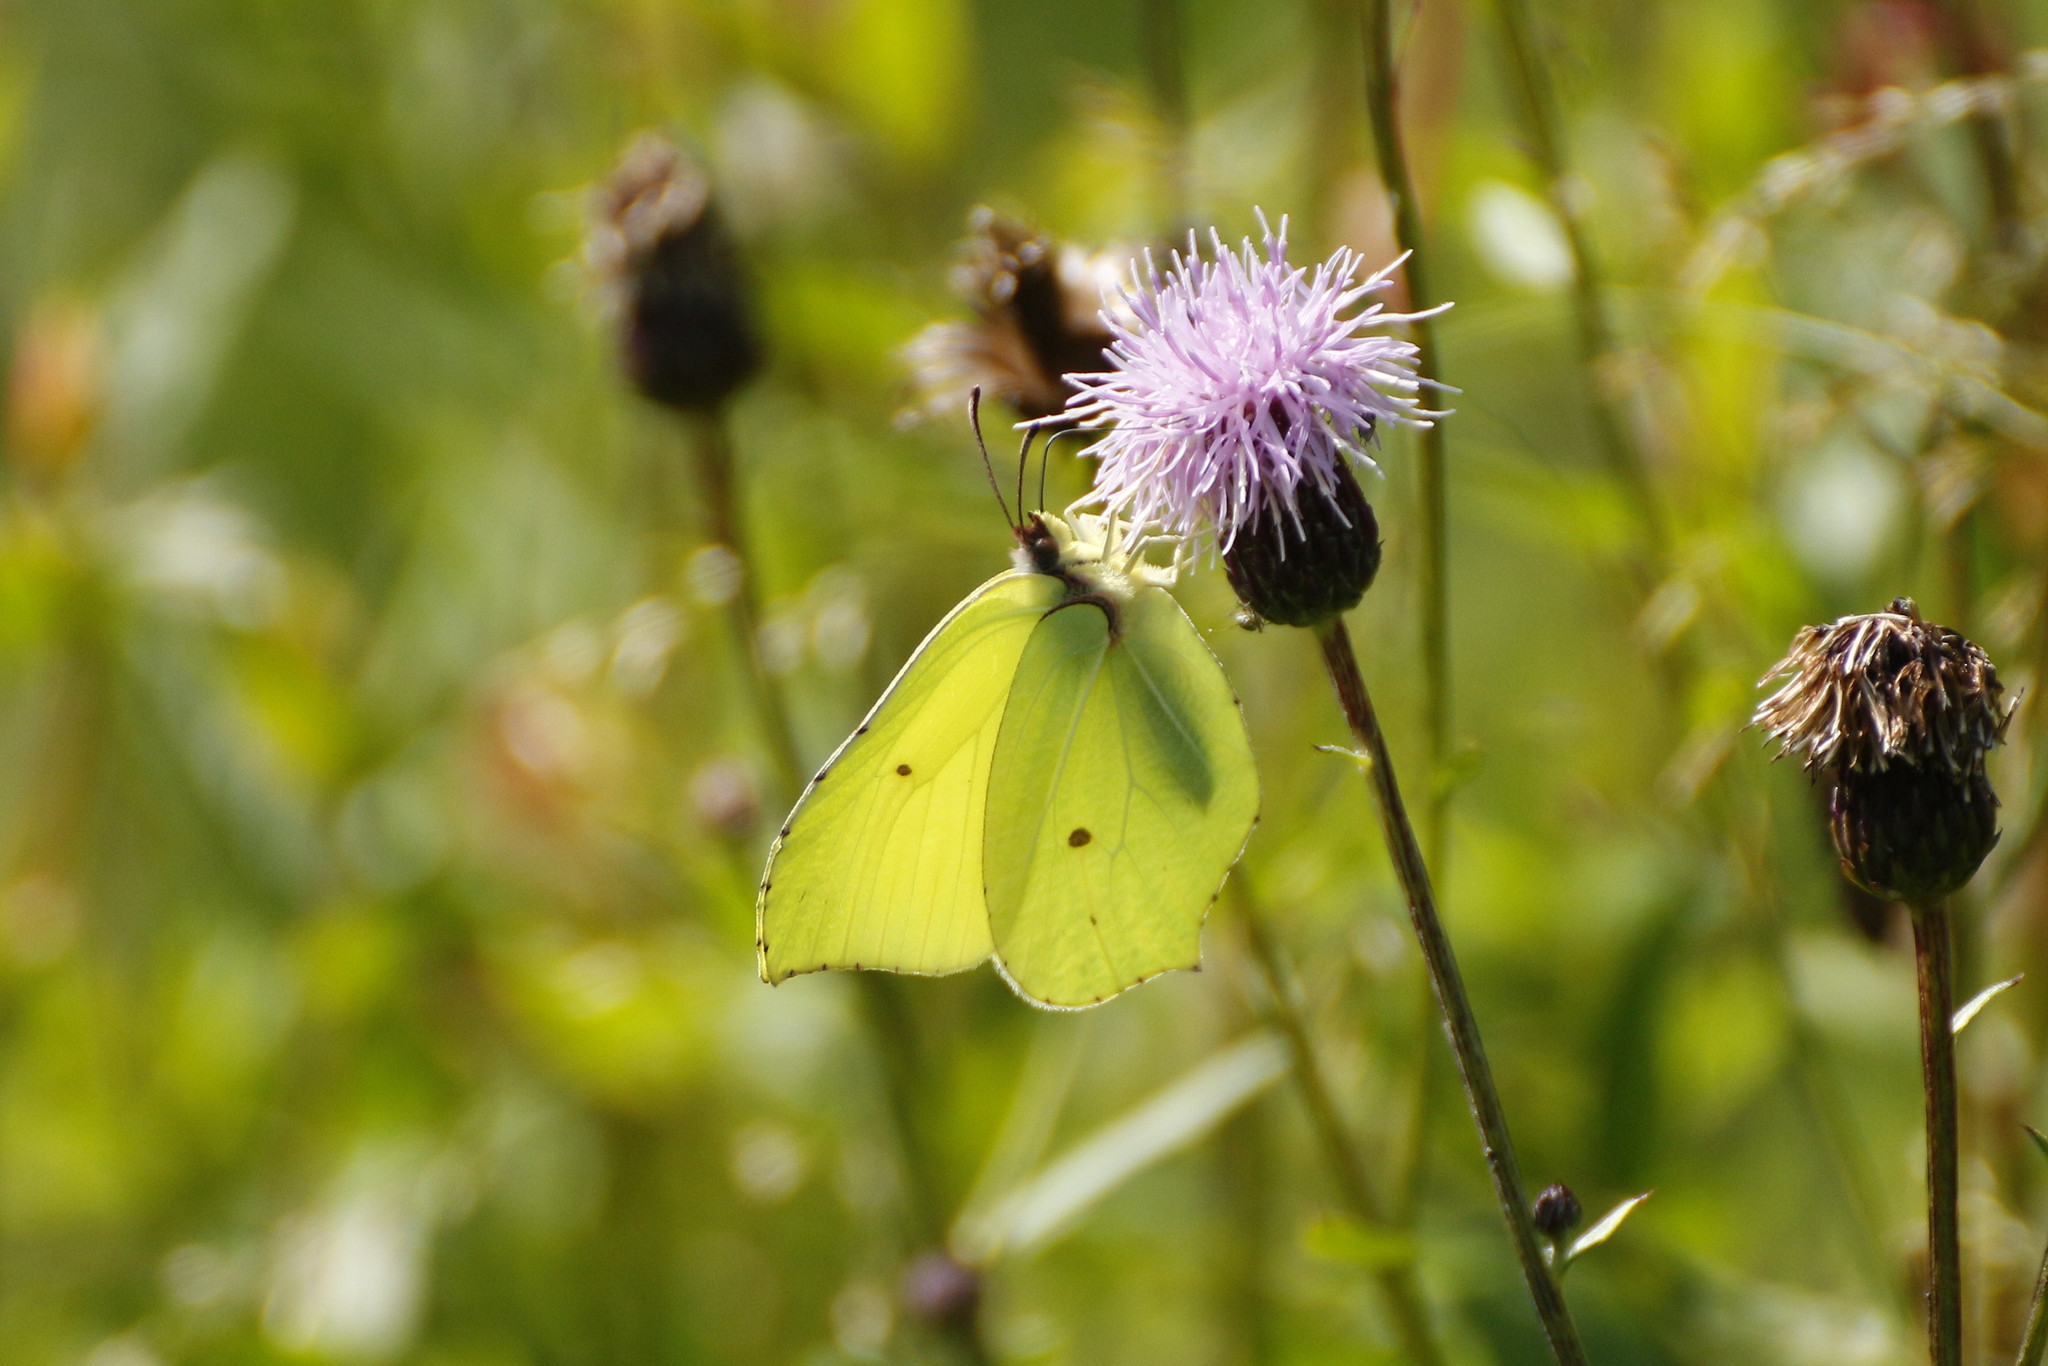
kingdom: Animalia
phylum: Arthropoda
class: Insecta
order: Lepidoptera
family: Pieridae
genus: Gonepteryx
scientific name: Gonepteryx rhamni
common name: Brimstone
